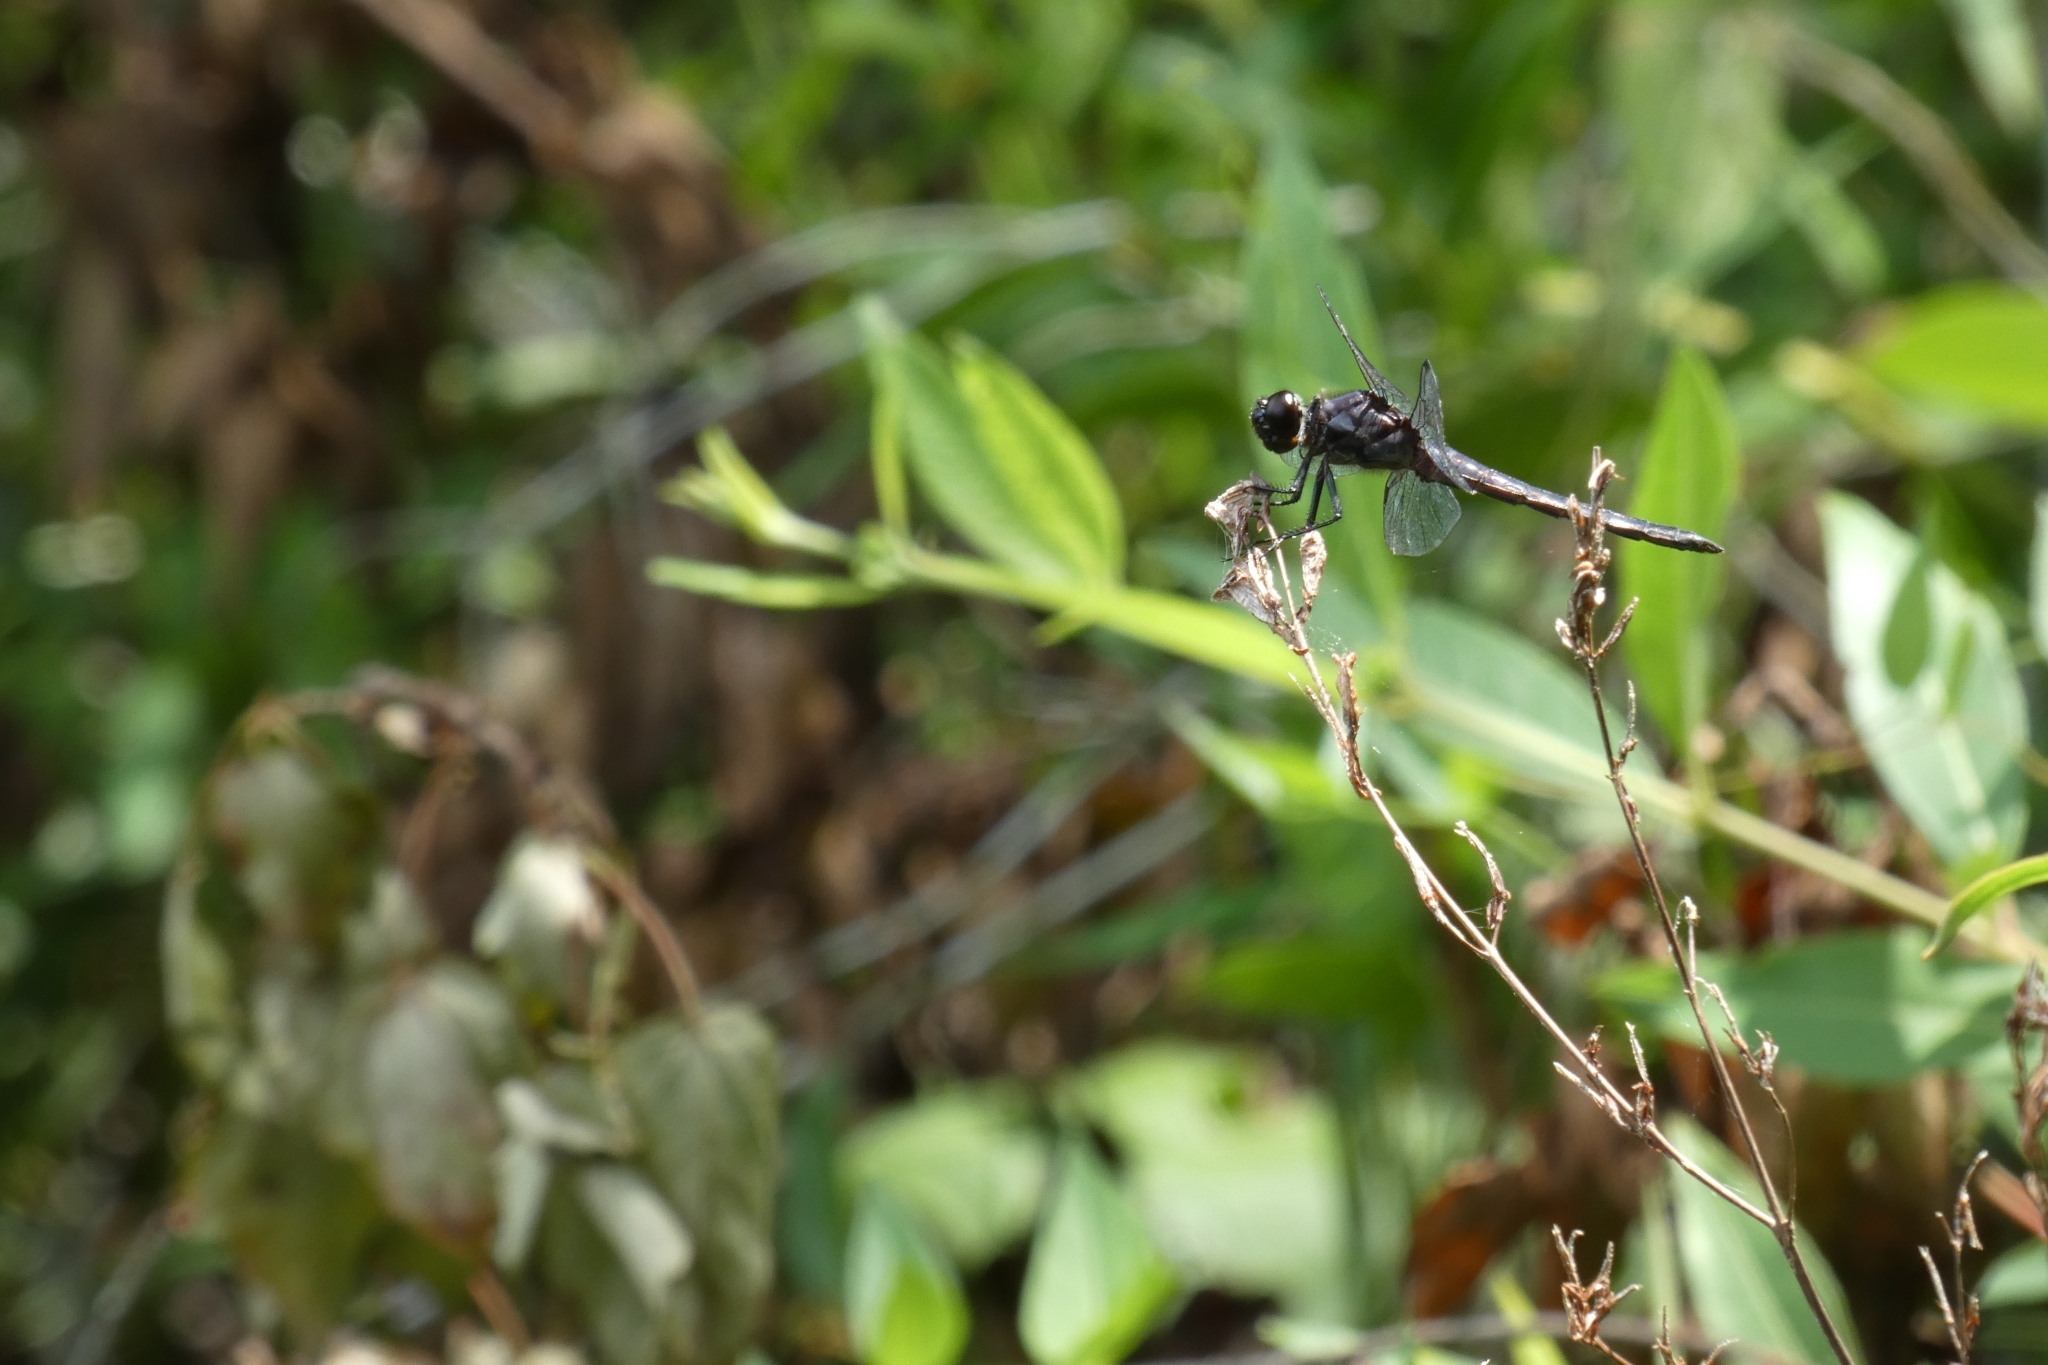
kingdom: Animalia
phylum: Arthropoda
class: Insecta
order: Odonata
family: Libellulidae
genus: Libellula
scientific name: Libellula incesta
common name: Slaty skimmer
